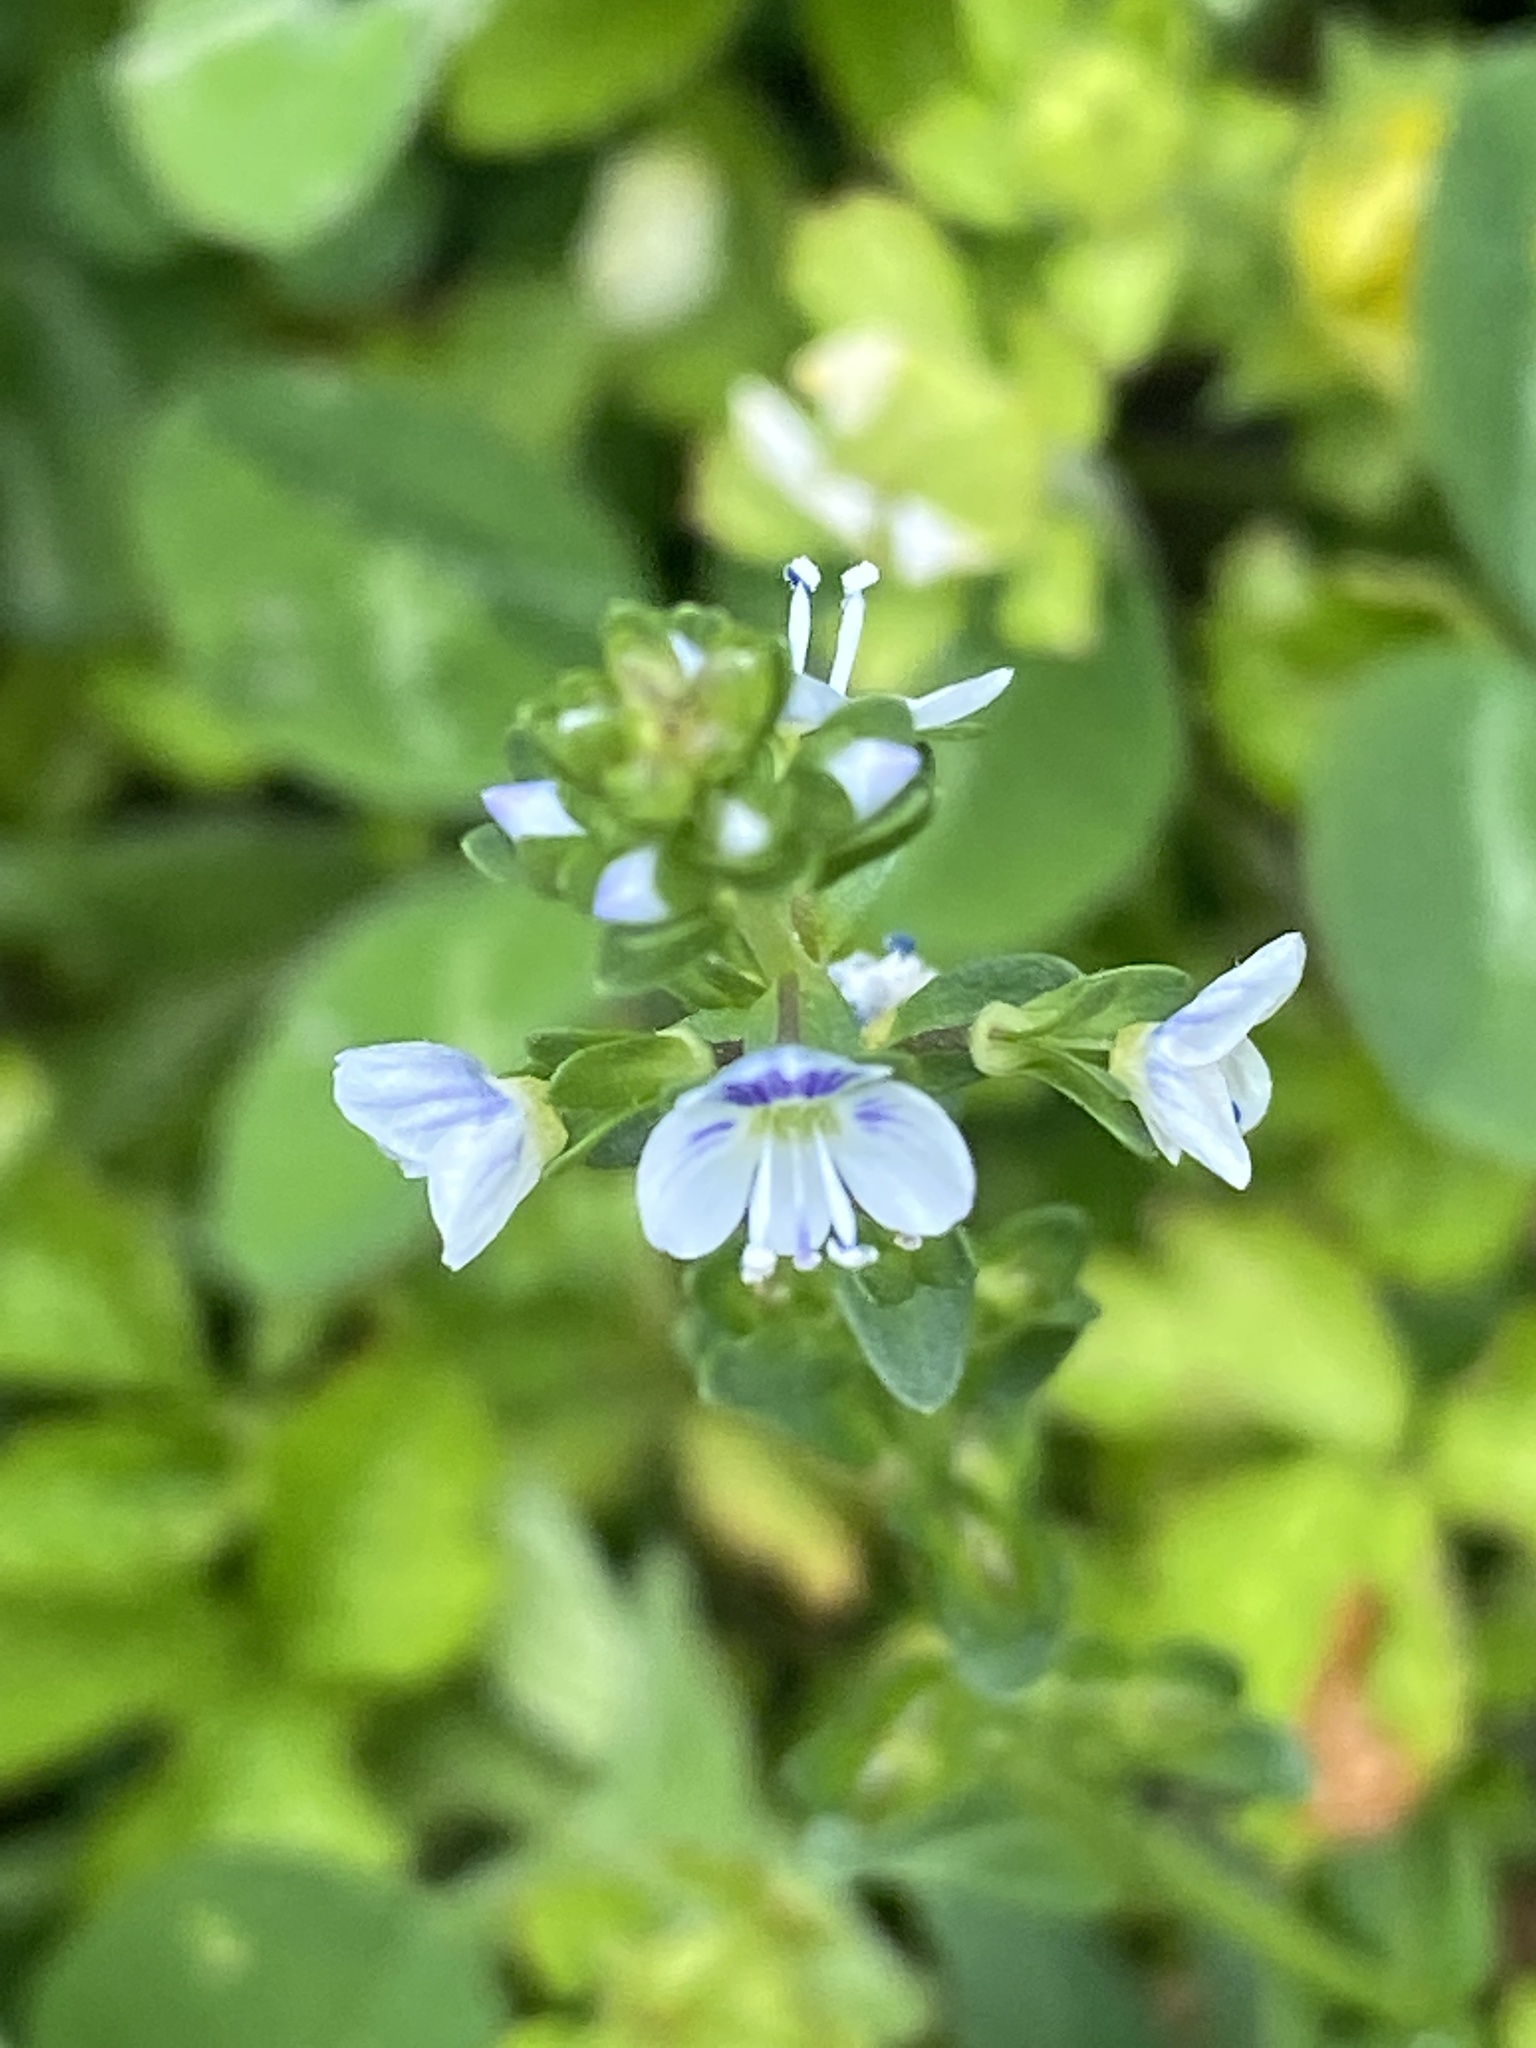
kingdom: Plantae
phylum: Tracheophyta
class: Magnoliopsida
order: Lamiales
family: Plantaginaceae
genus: Veronica
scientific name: Veronica serpyllifolia
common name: Thyme-leaved speedwell
